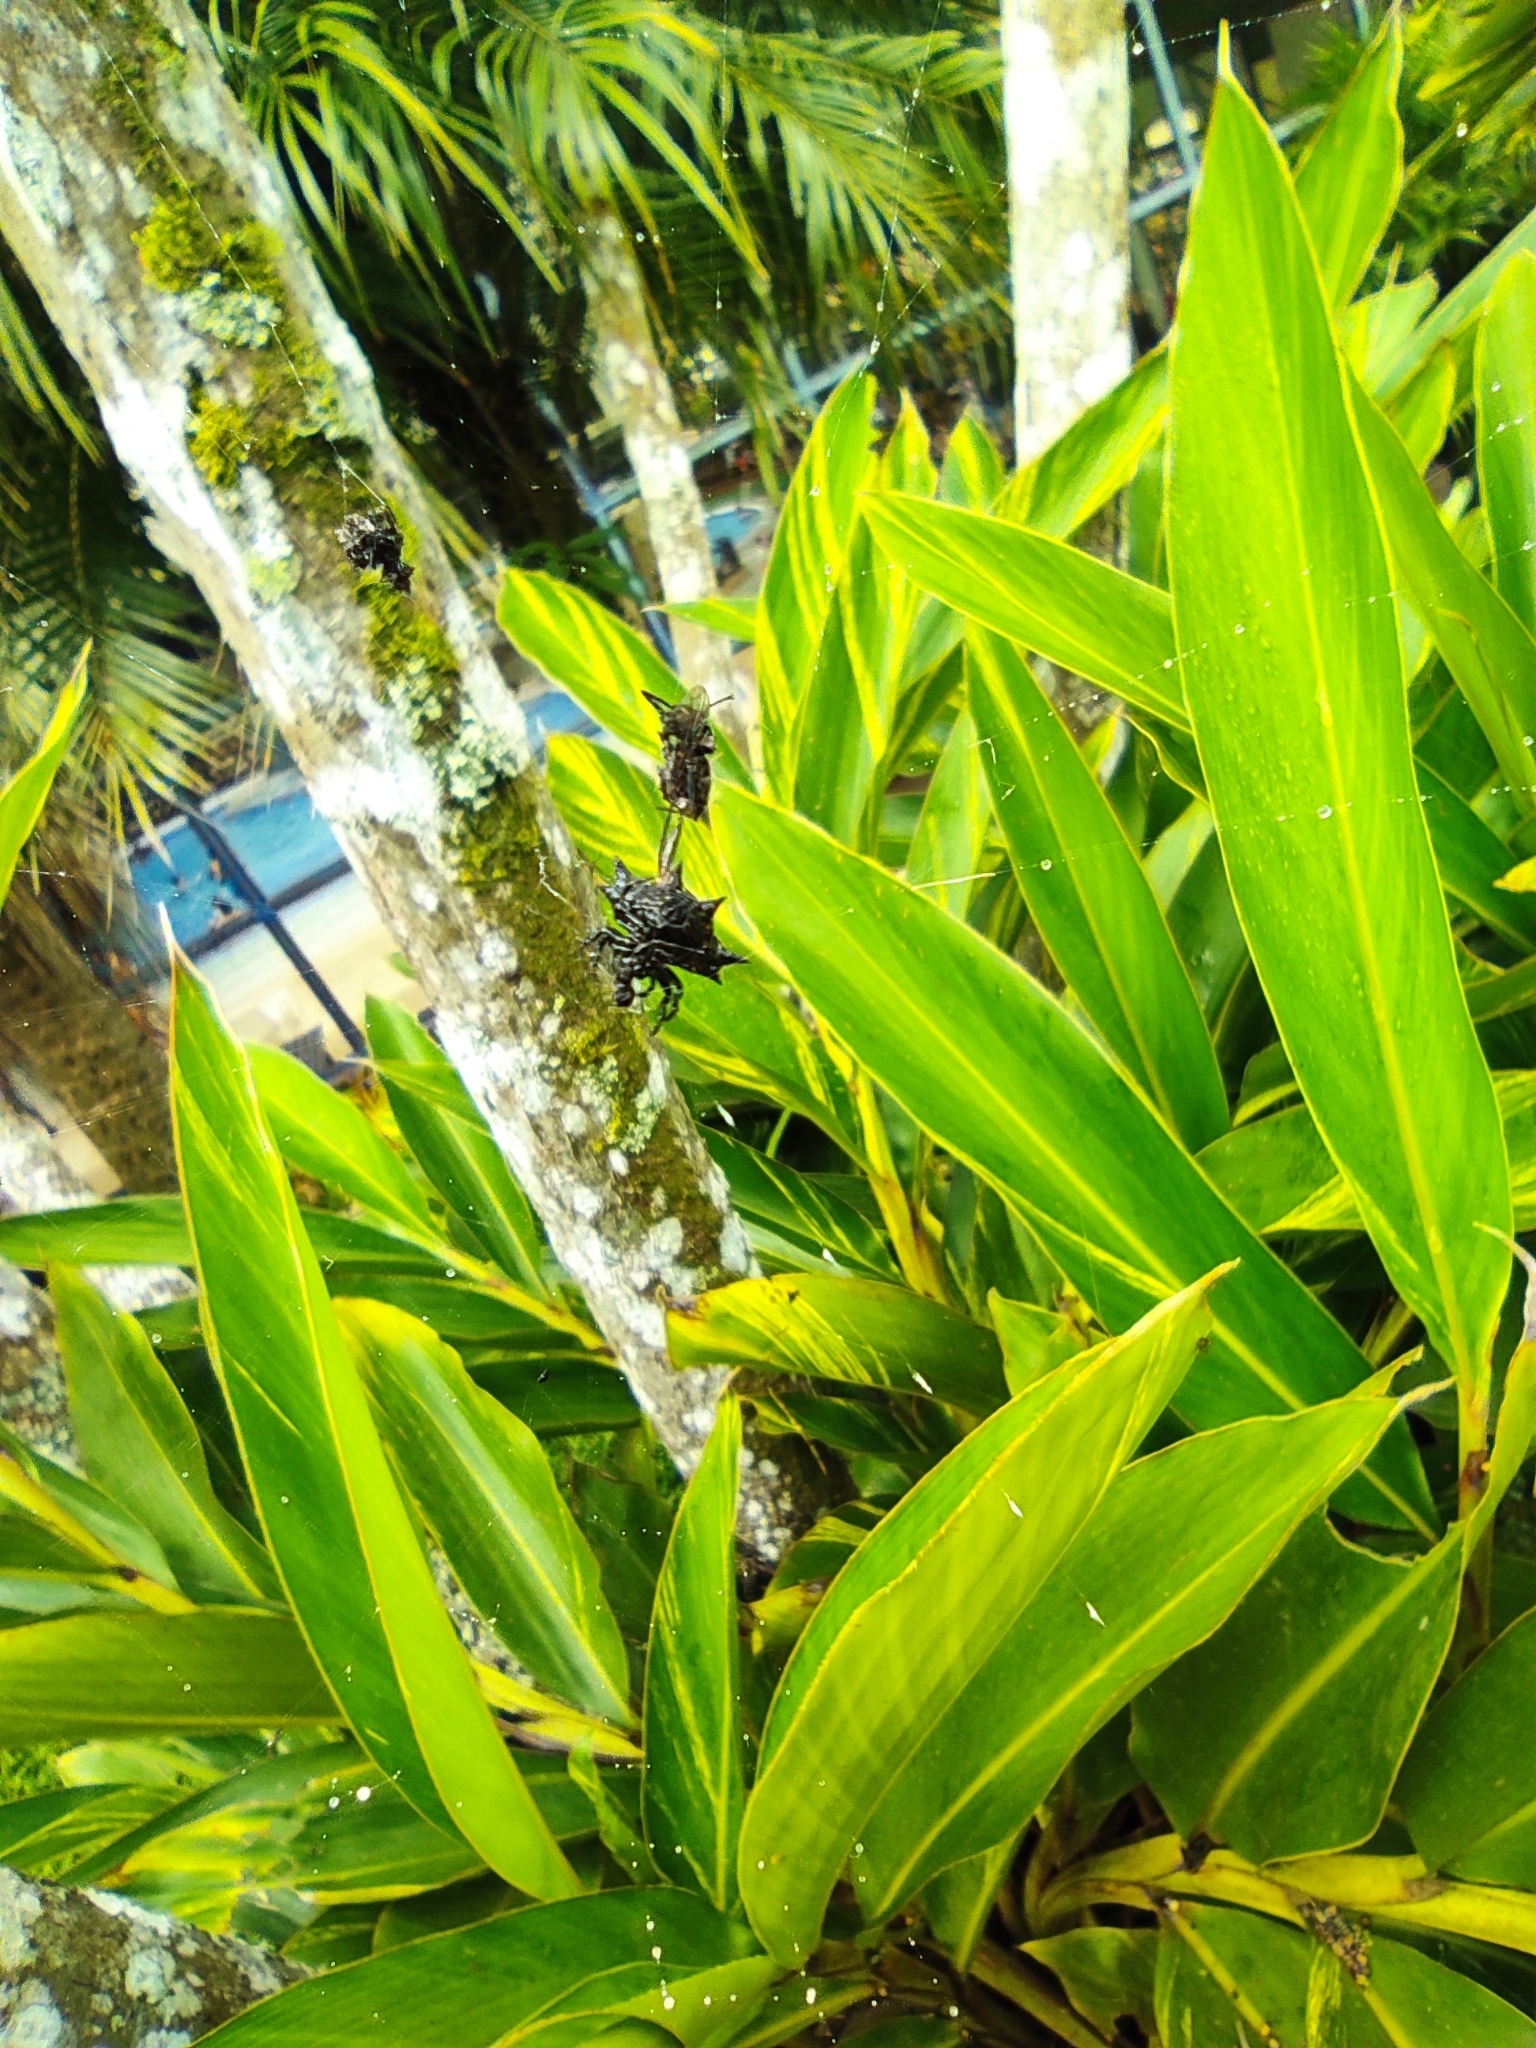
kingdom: Animalia
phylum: Arthropoda
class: Arachnida
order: Araneae
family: Araneidae
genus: Gasteracantha
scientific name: Gasteracantha cancriformis
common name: Orb weavers
